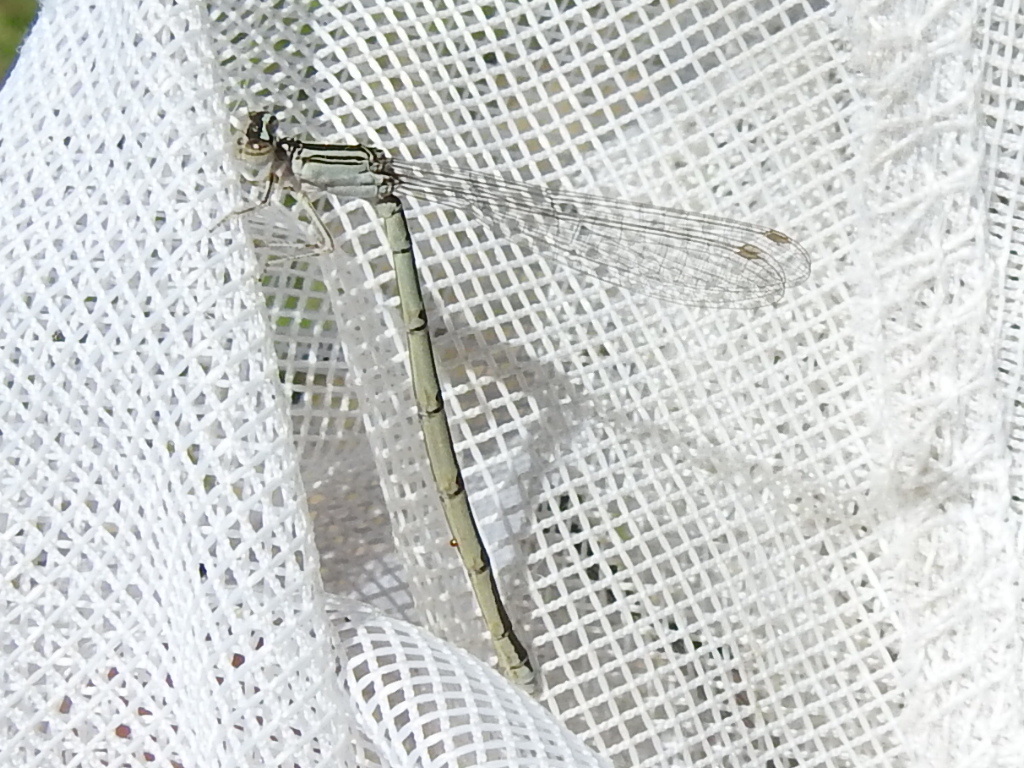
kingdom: Animalia
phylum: Arthropoda
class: Insecta
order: Odonata
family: Coenagrionidae
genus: Enallagma
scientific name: Enallagma basidens
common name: Double-striped bluet
